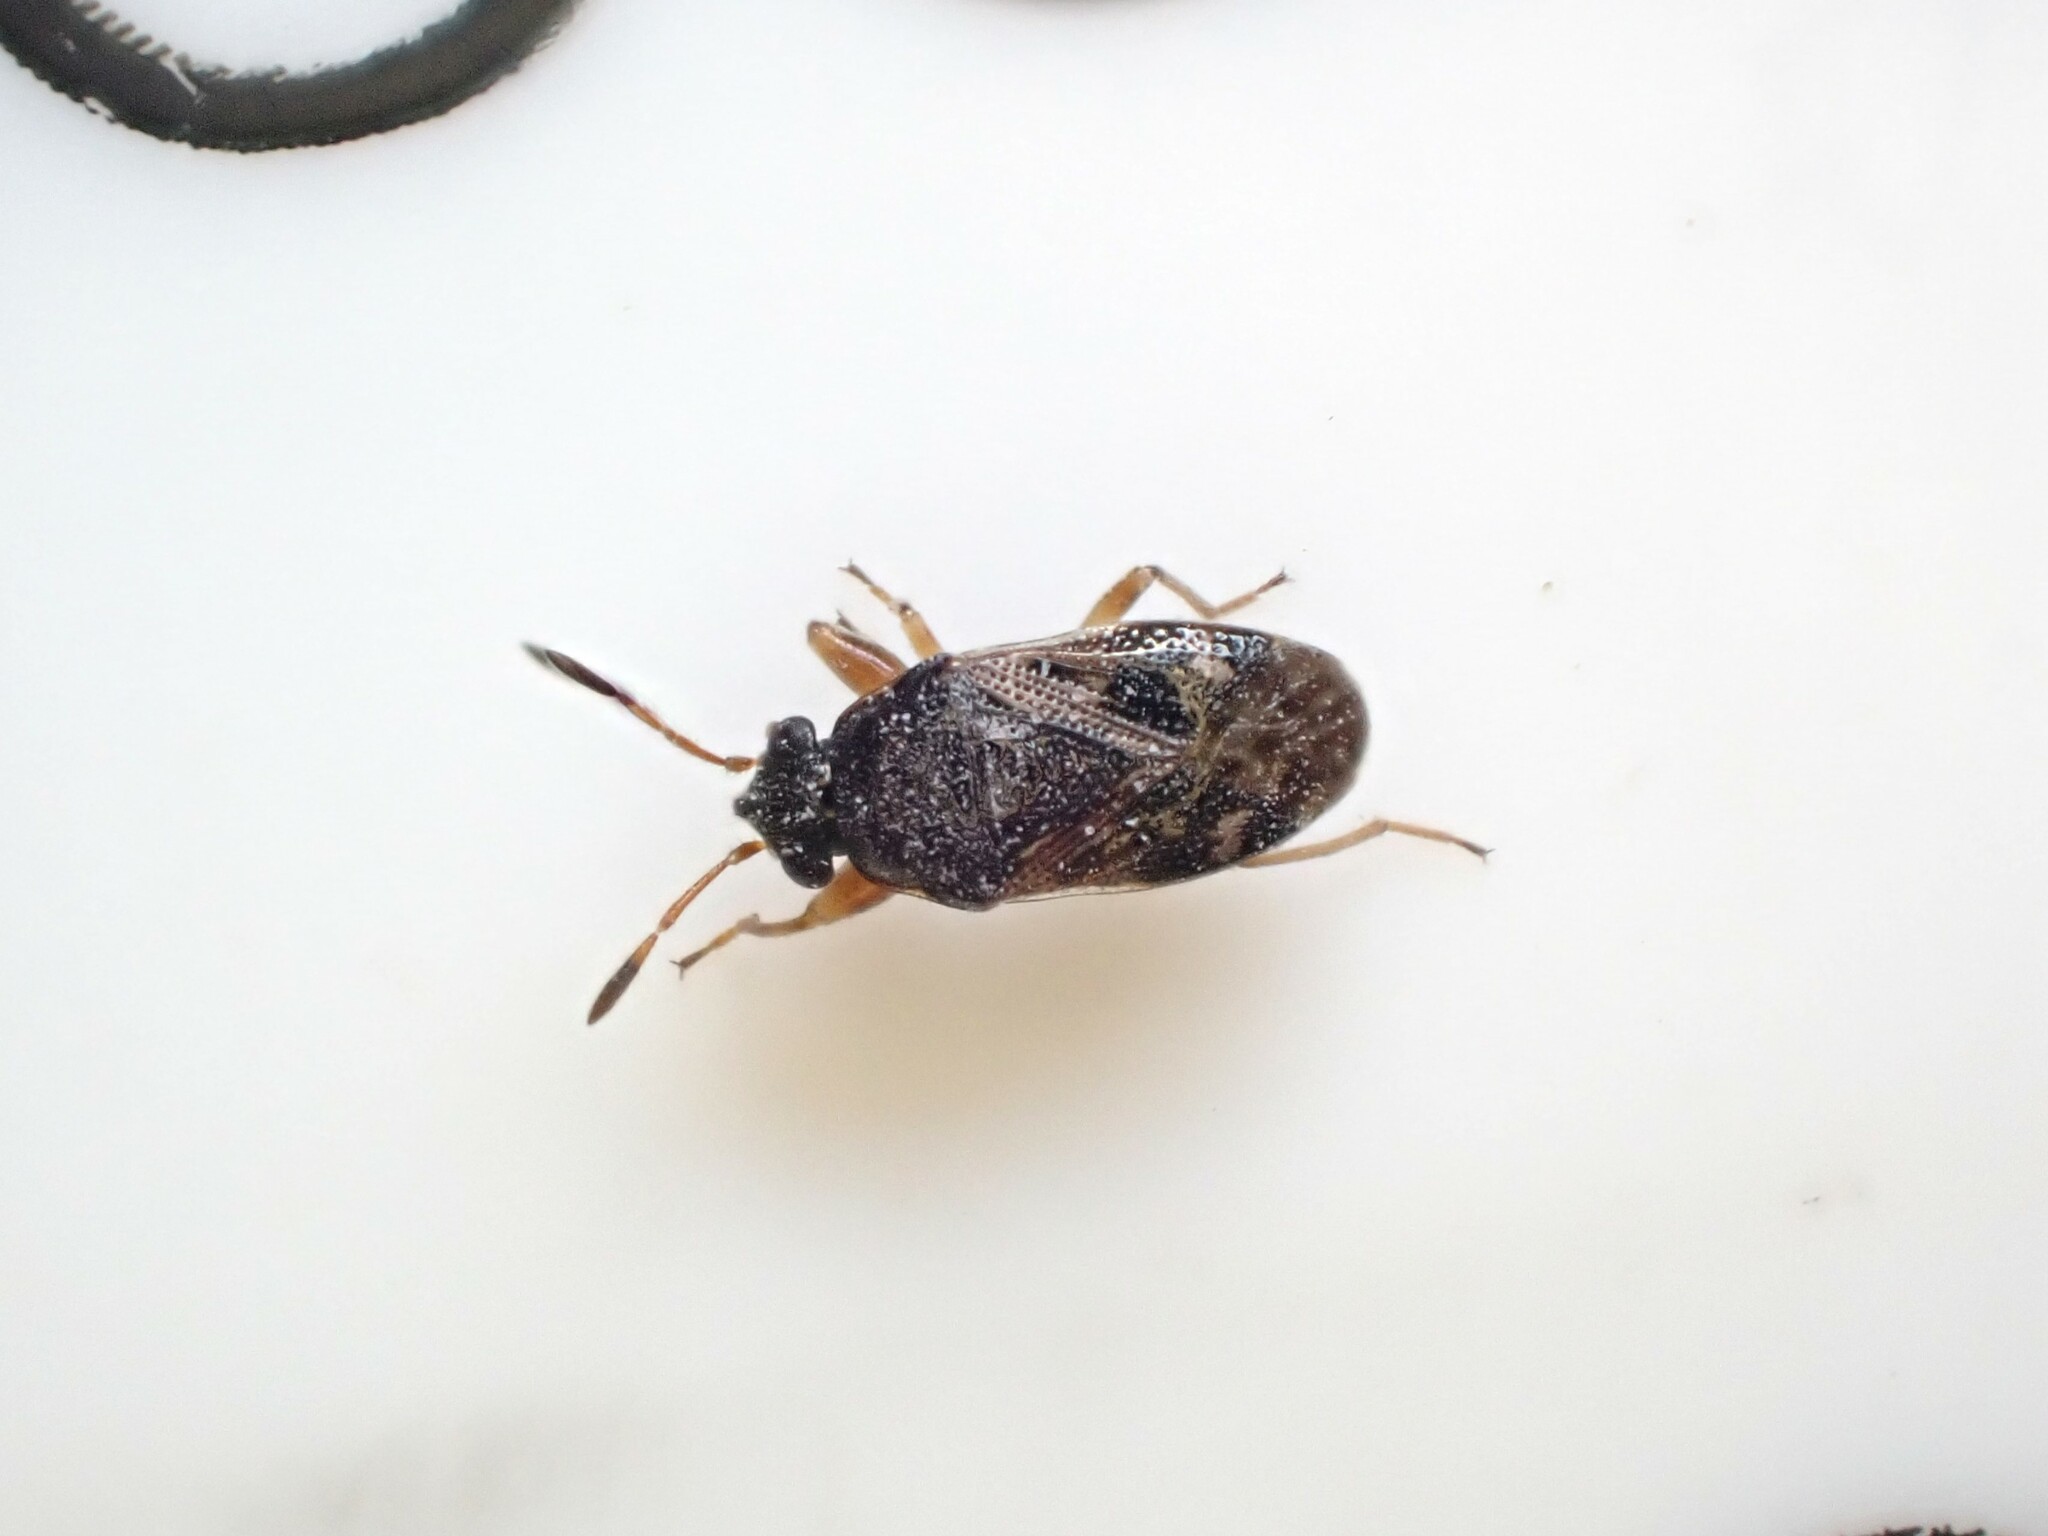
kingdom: Animalia
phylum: Arthropoda
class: Insecta
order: Hemiptera
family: Rhyparochromidae
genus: Stizocephalus
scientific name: Stizocephalus brevirostris
